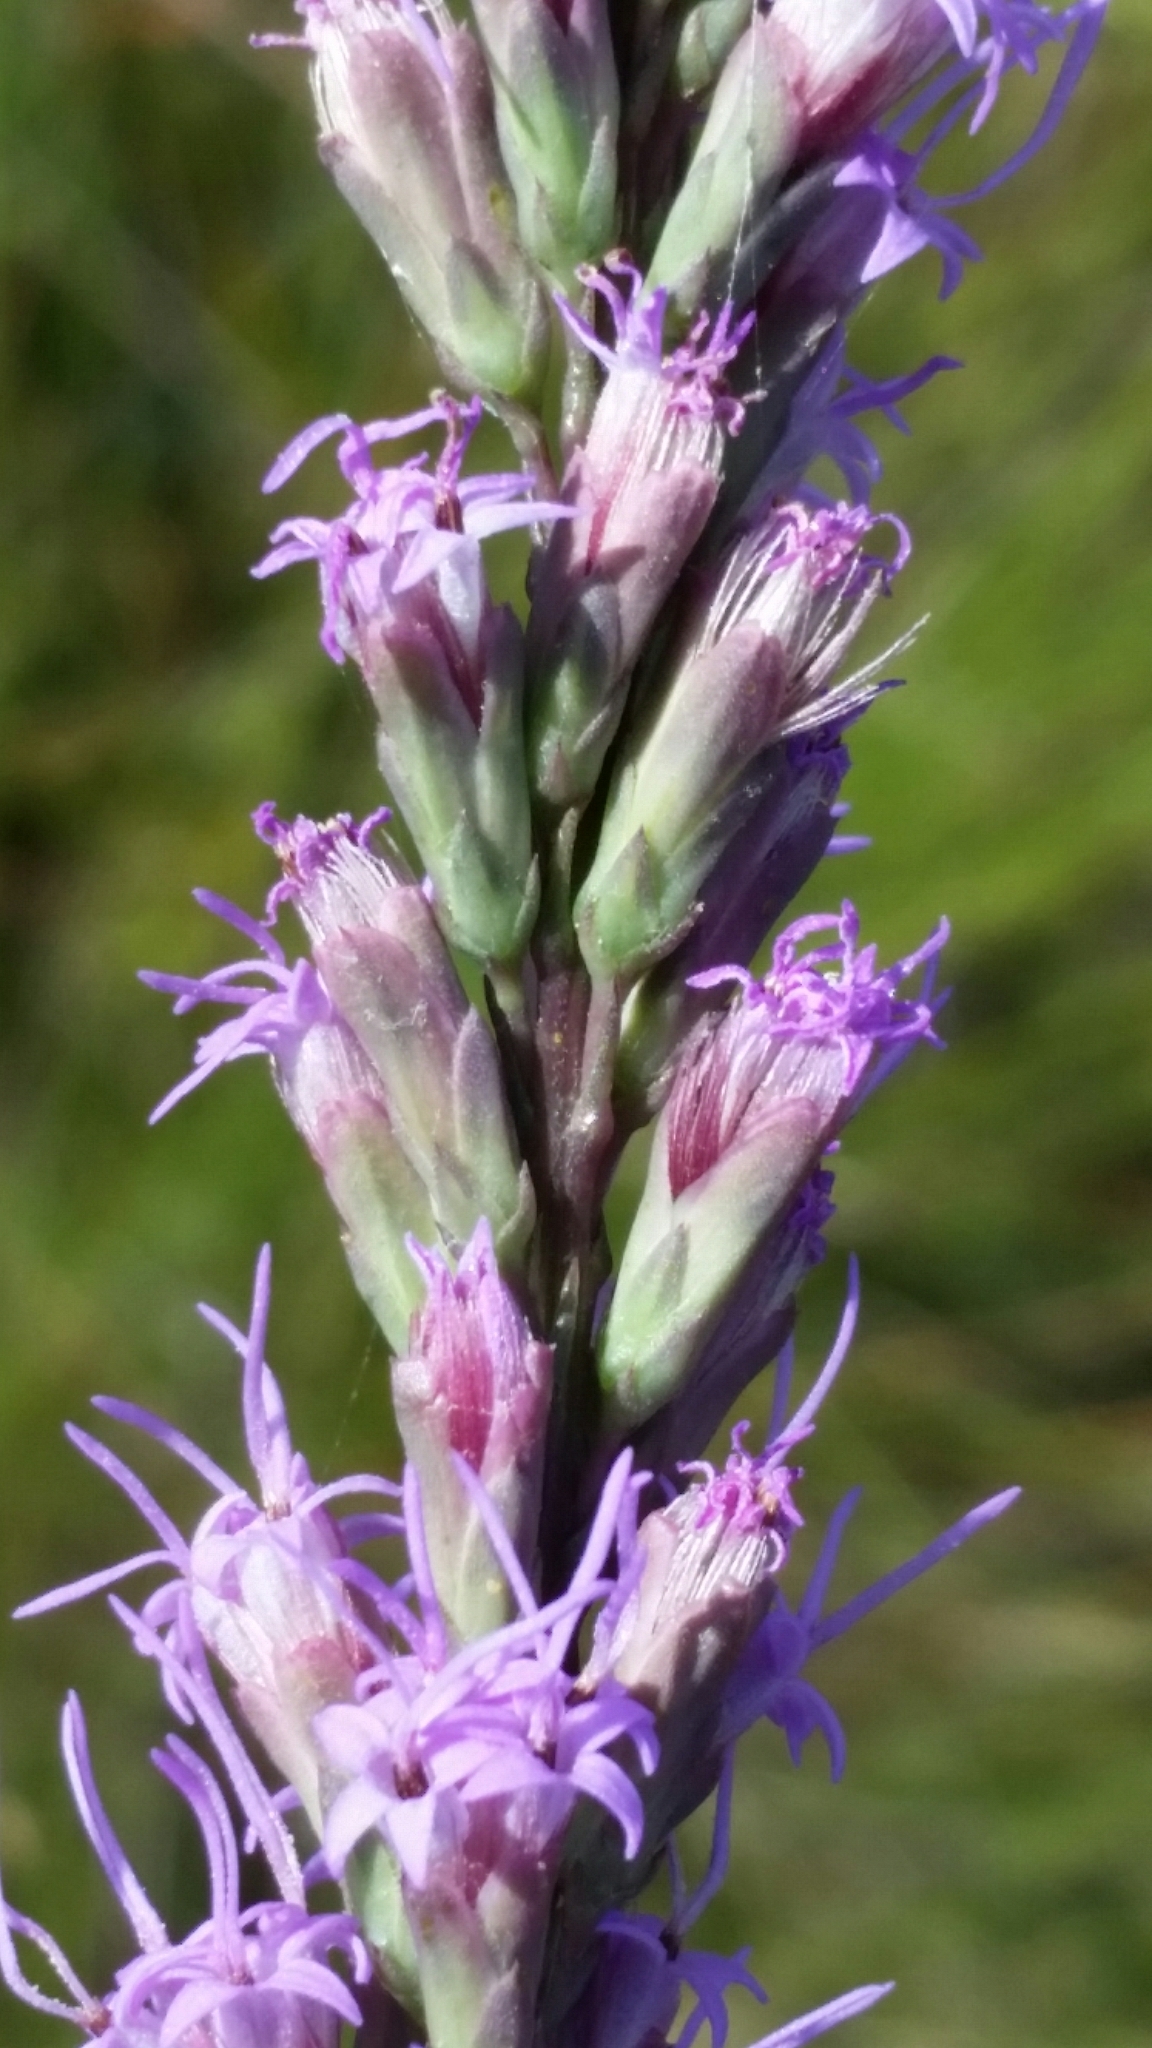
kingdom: Plantae
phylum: Tracheophyta
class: Magnoliopsida
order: Asterales
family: Asteraceae
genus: Liatris
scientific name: Liatris quadriflora
